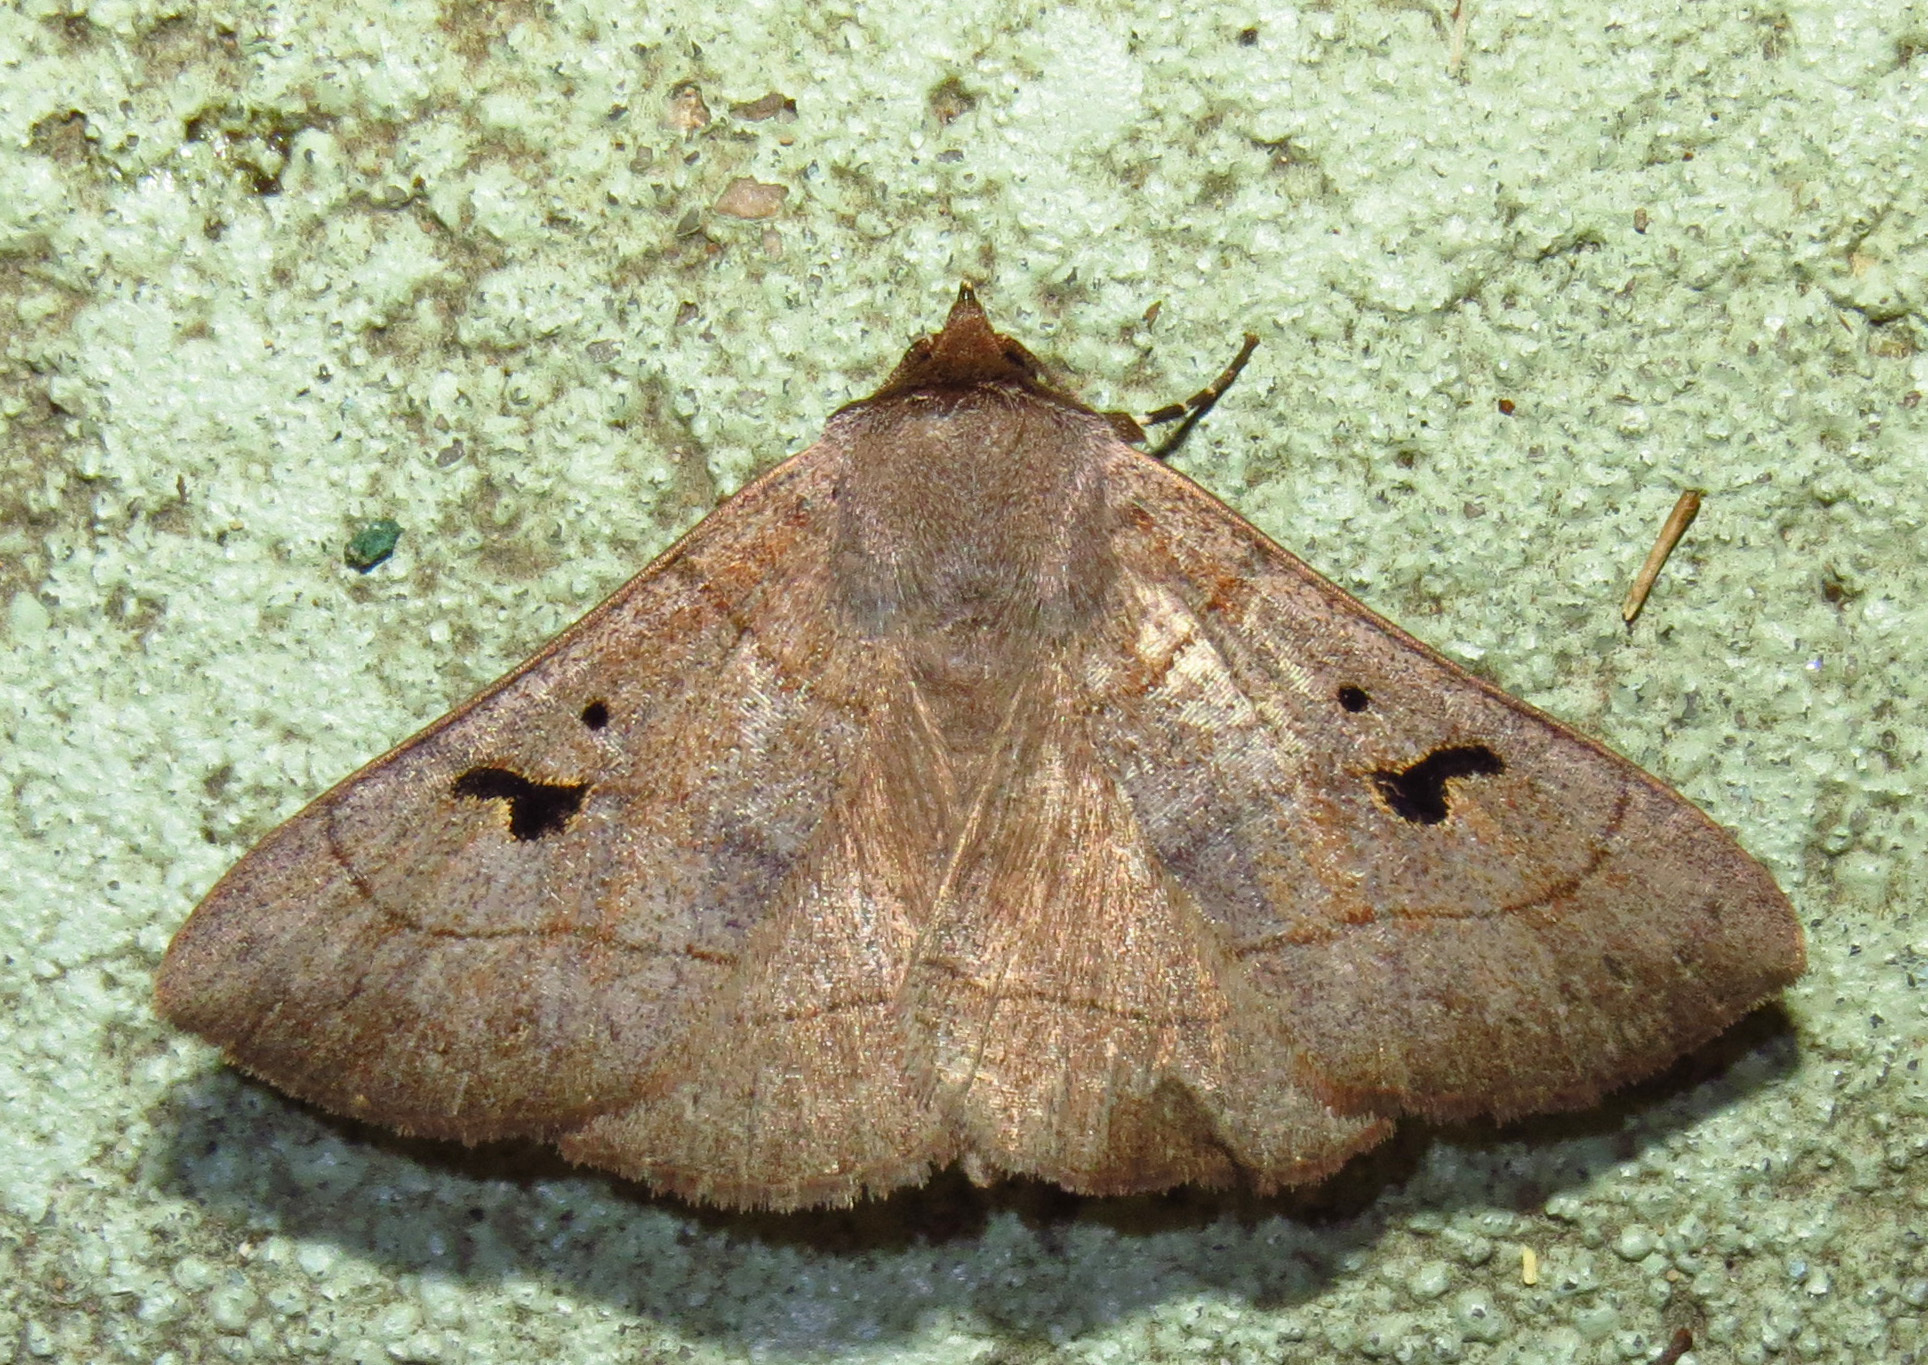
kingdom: Animalia
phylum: Arthropoda
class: Insecta
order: Lepidoptera
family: Erebidae
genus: Panopoda
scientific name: Panopoda carneicosta
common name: Brown panopoda moth
